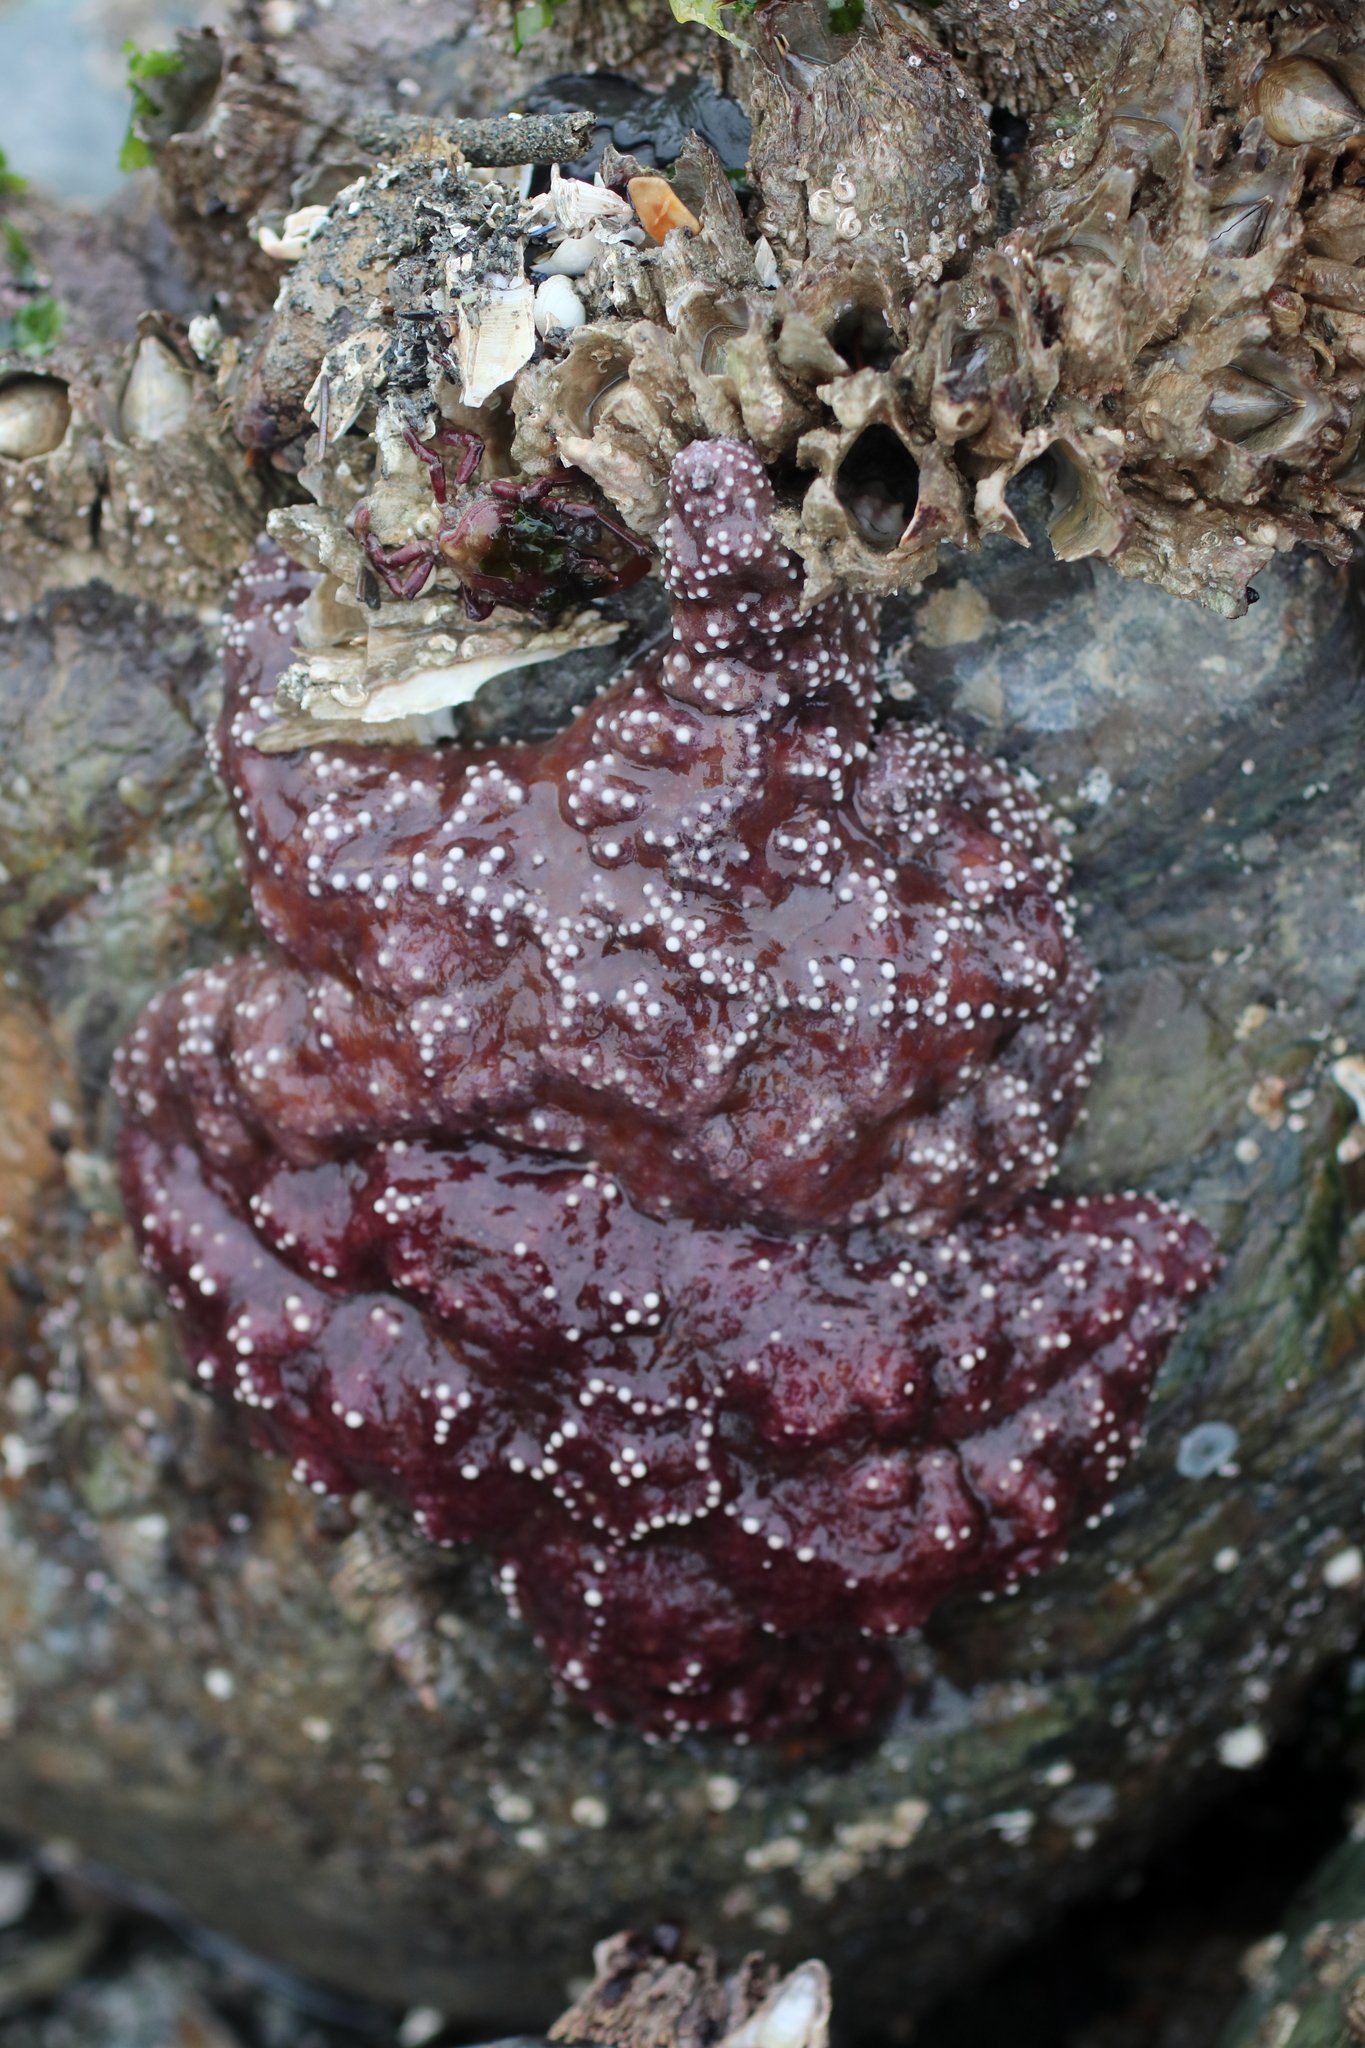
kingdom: Animalia
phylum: Echinodermata
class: Asteroidea
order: Forcipulatida
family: Asteriidae
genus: Pisaster
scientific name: Pisaster ochraceus
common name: Ochre stars
